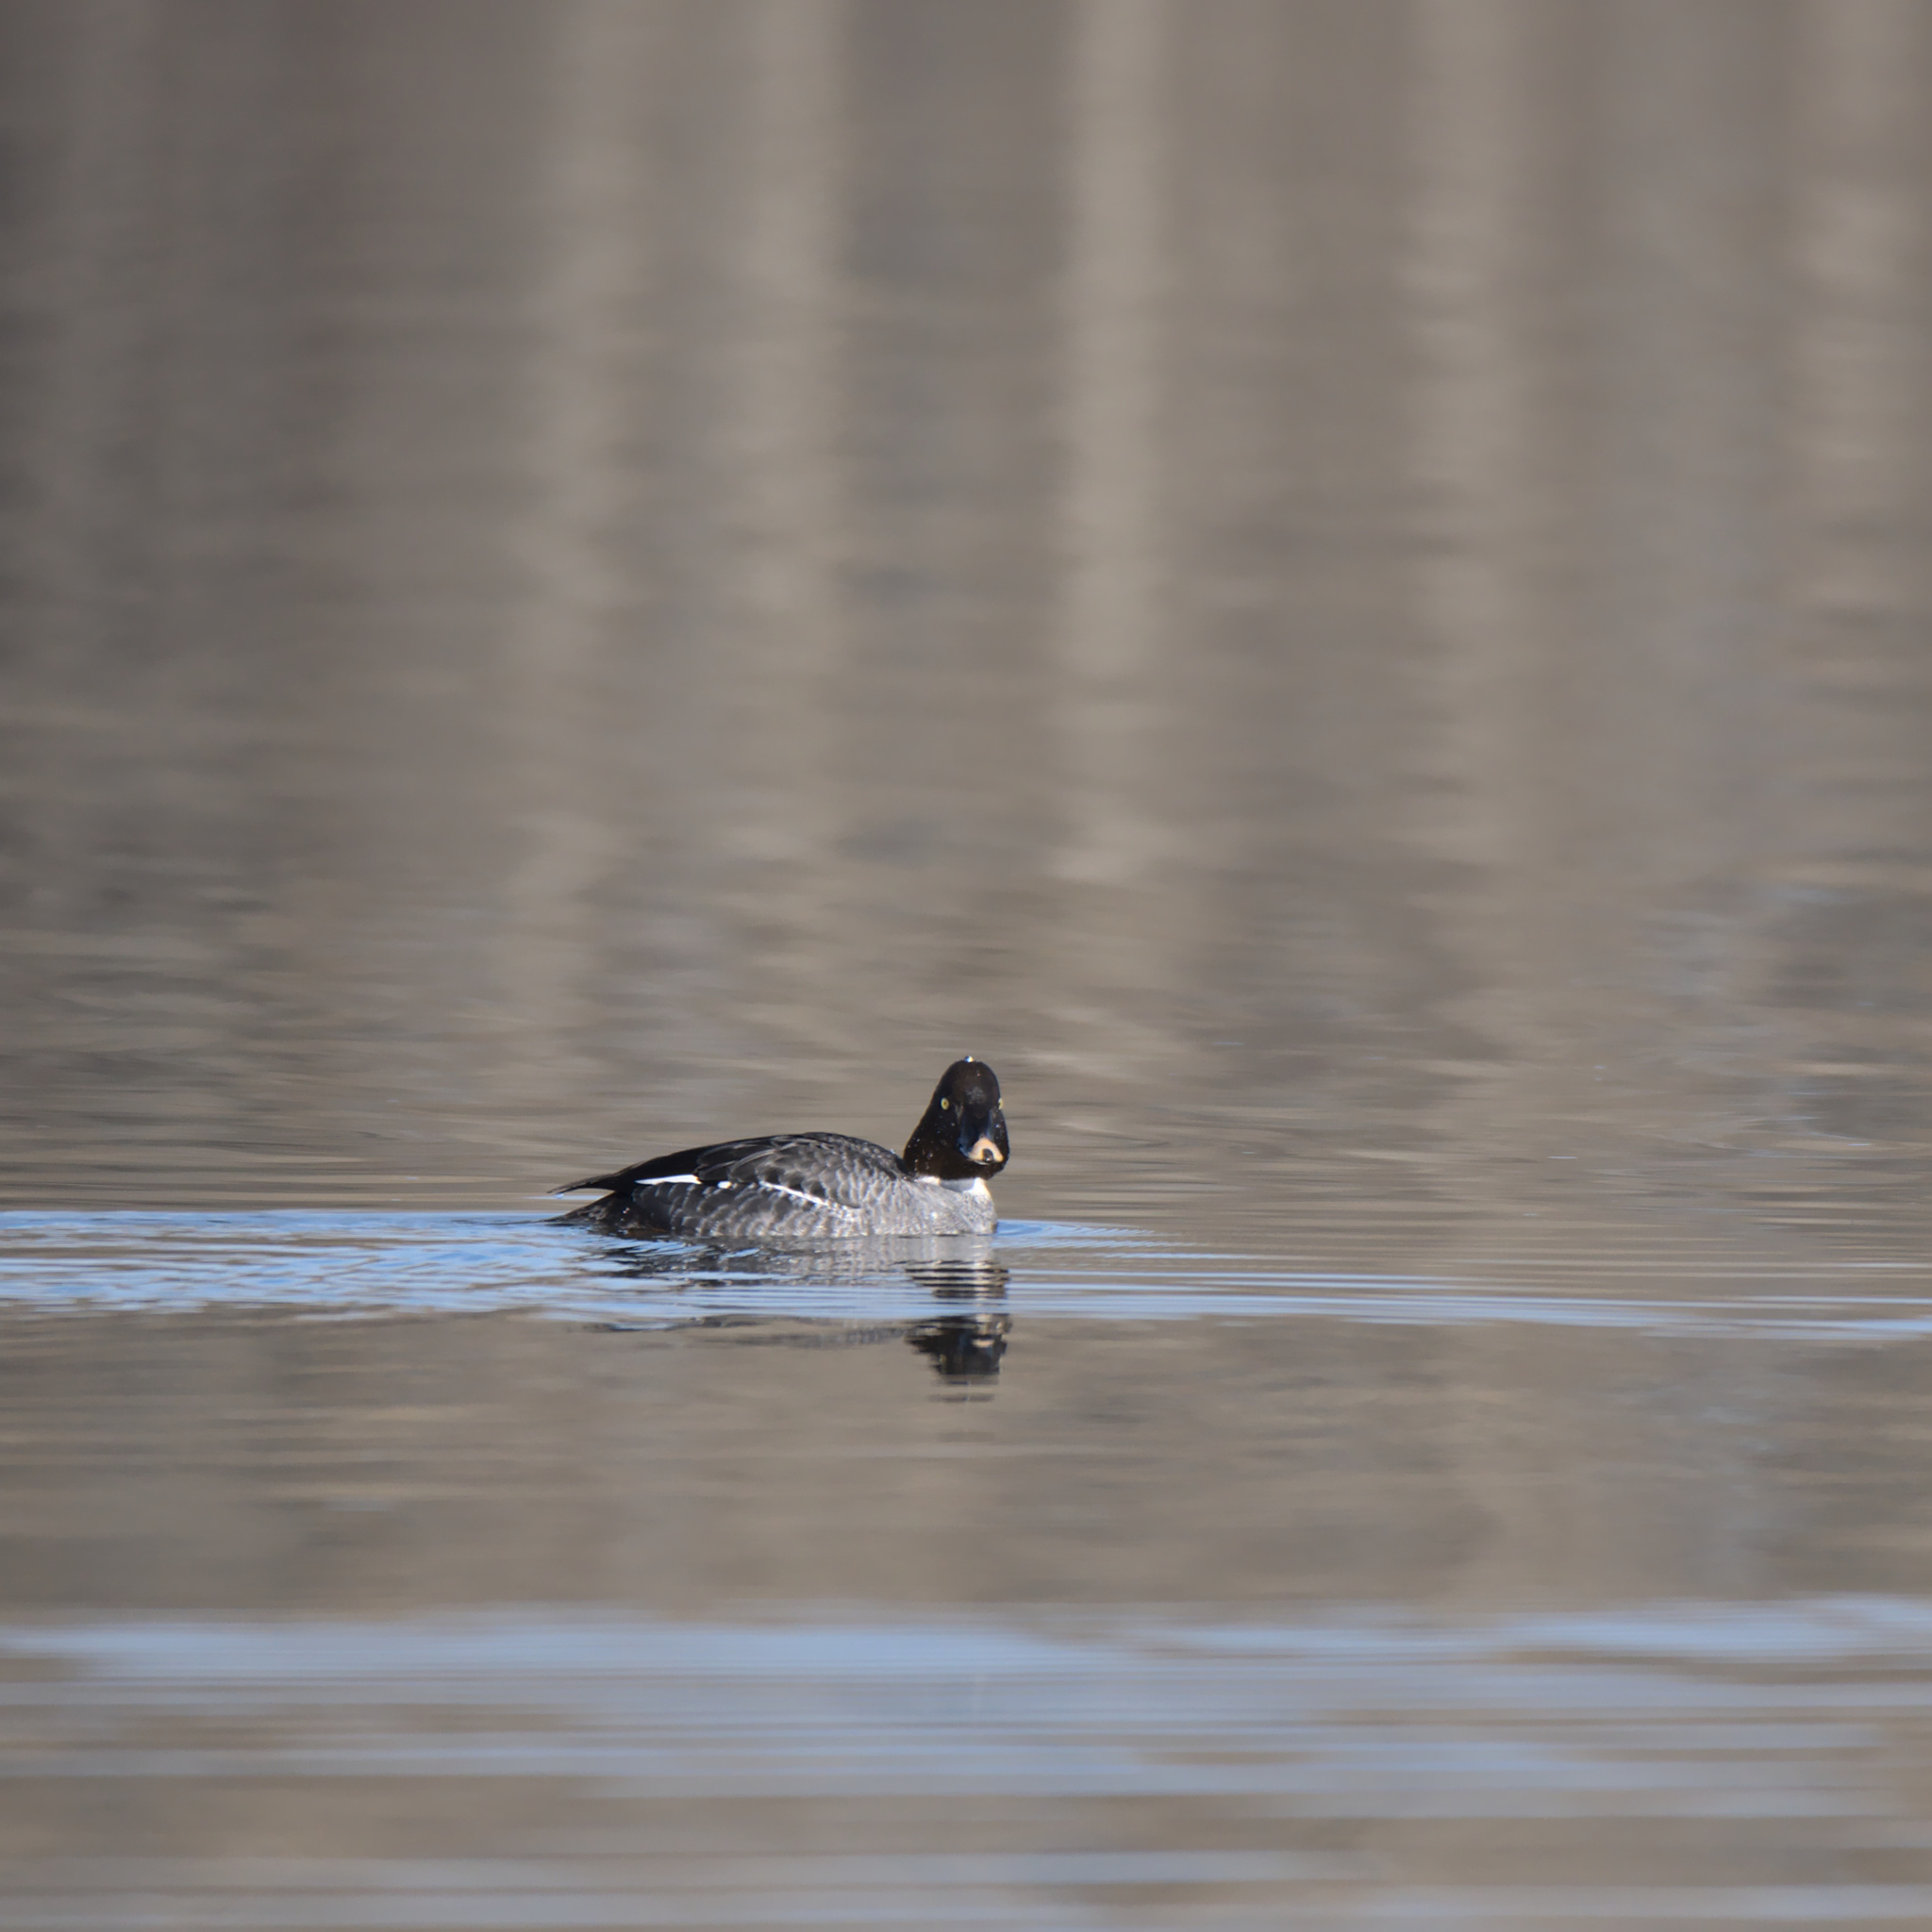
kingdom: Animalia
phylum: Chordata
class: Aves
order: Anseriformes
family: Anatidae
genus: Bucephala
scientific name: Bucephala clangula
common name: Common goldeneye
